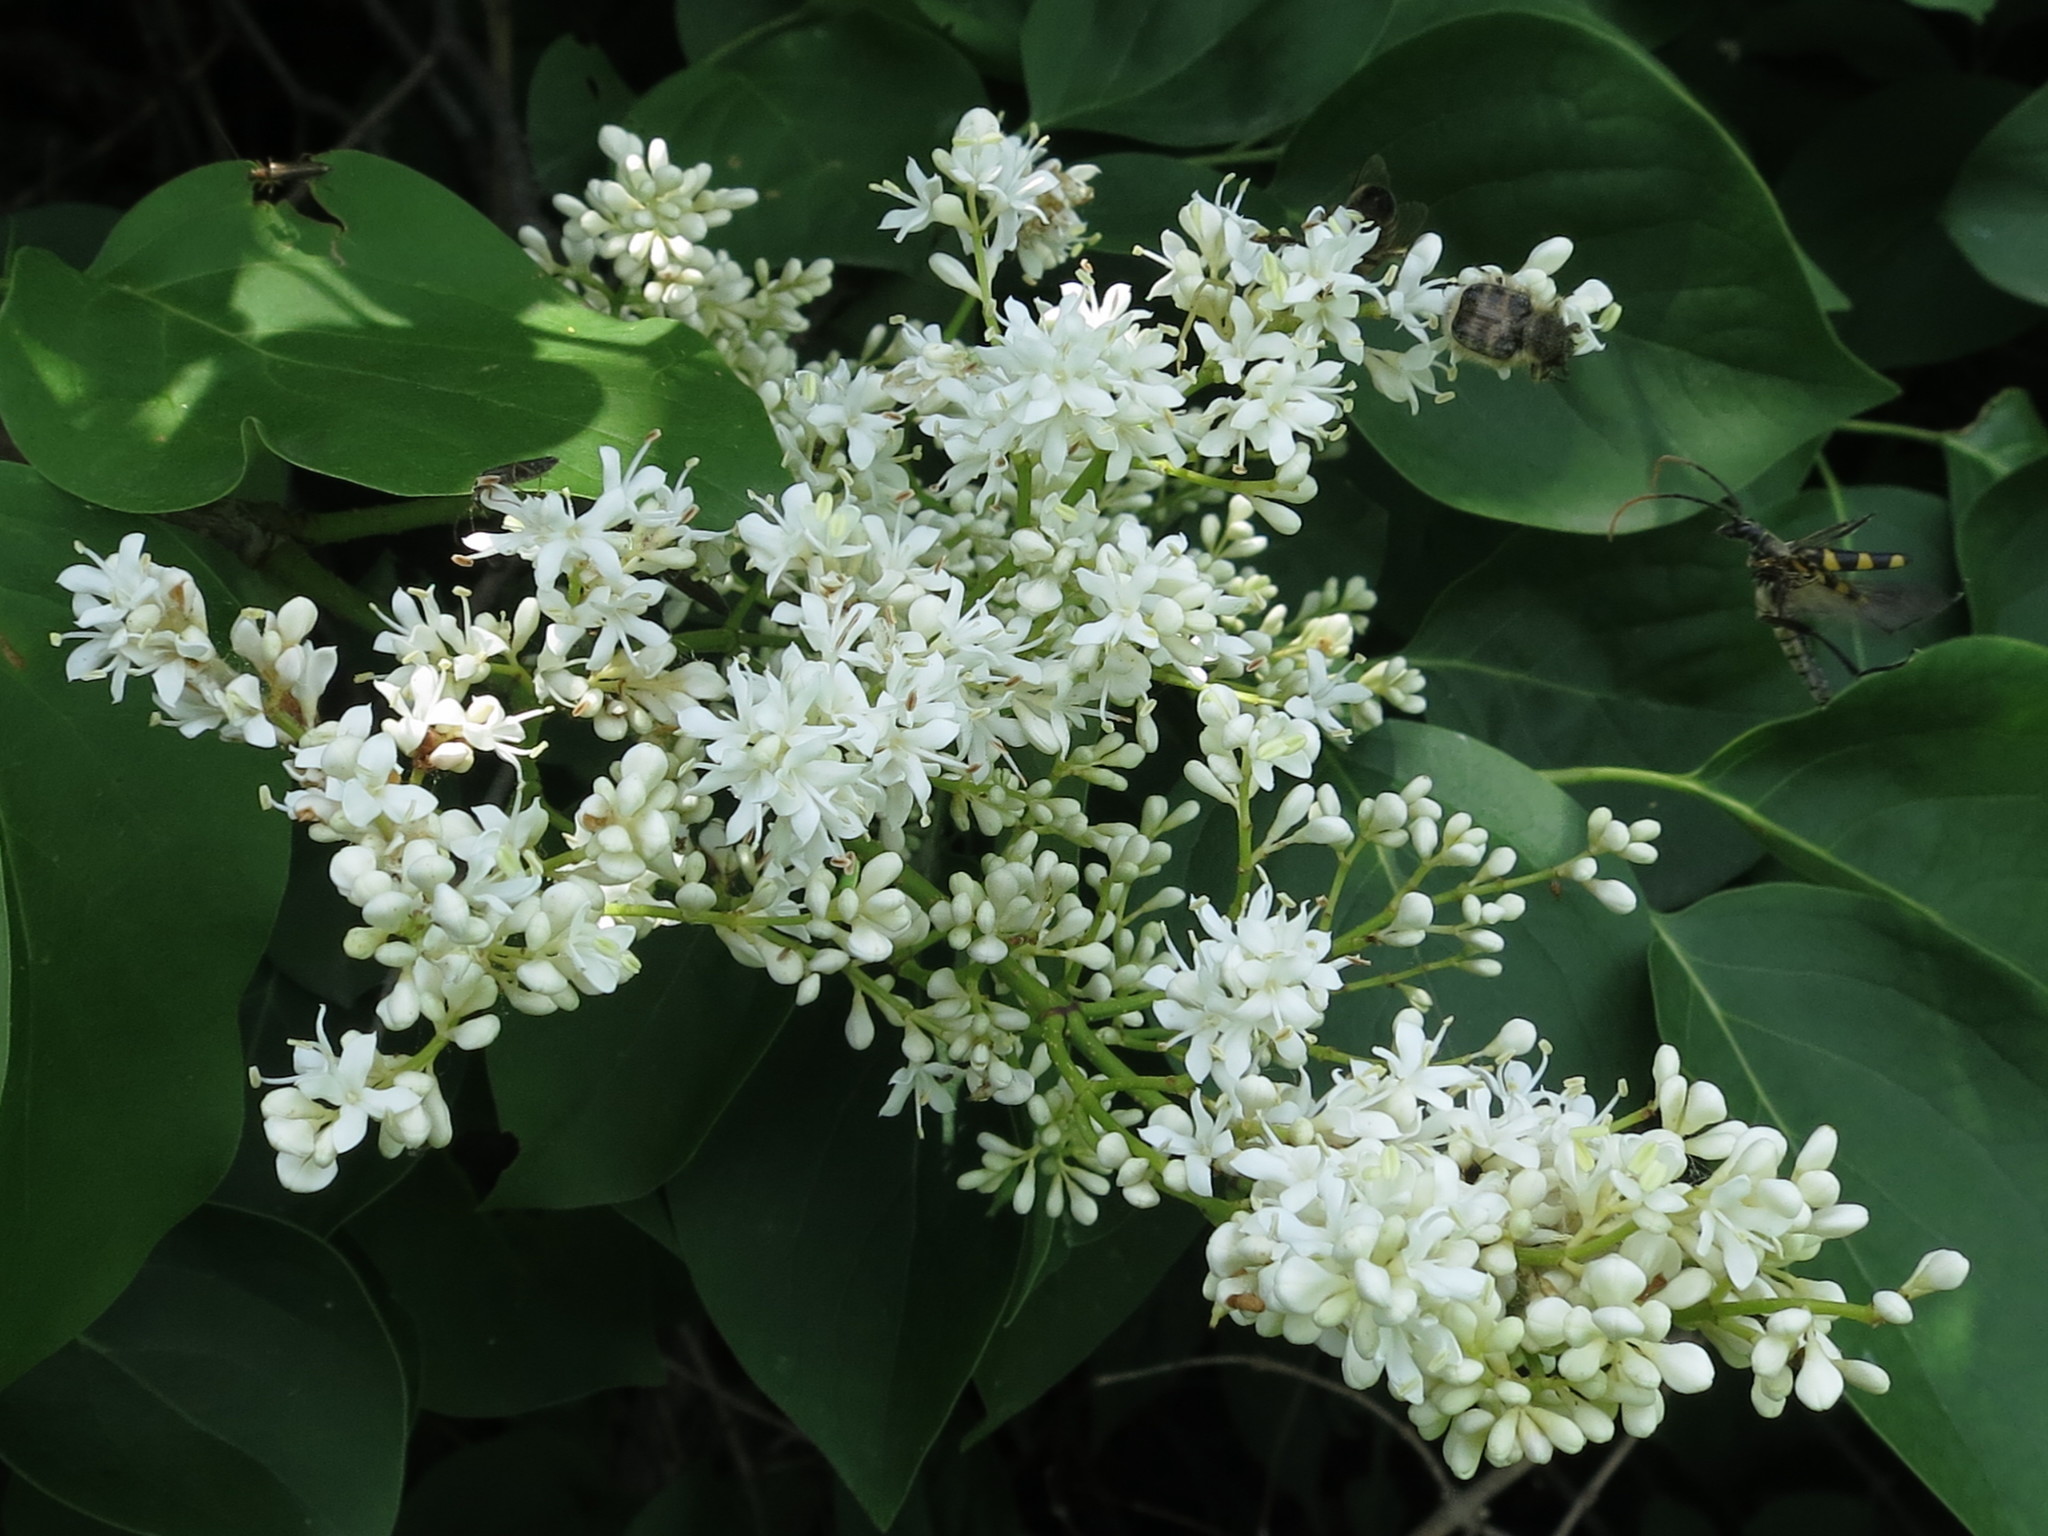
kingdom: Plantae
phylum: Tracheophyta
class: Magnoliopsida
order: Lamiales
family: Oleaceae
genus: Syringa
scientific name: Syringa reticulata
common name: Japanese tree lilac
